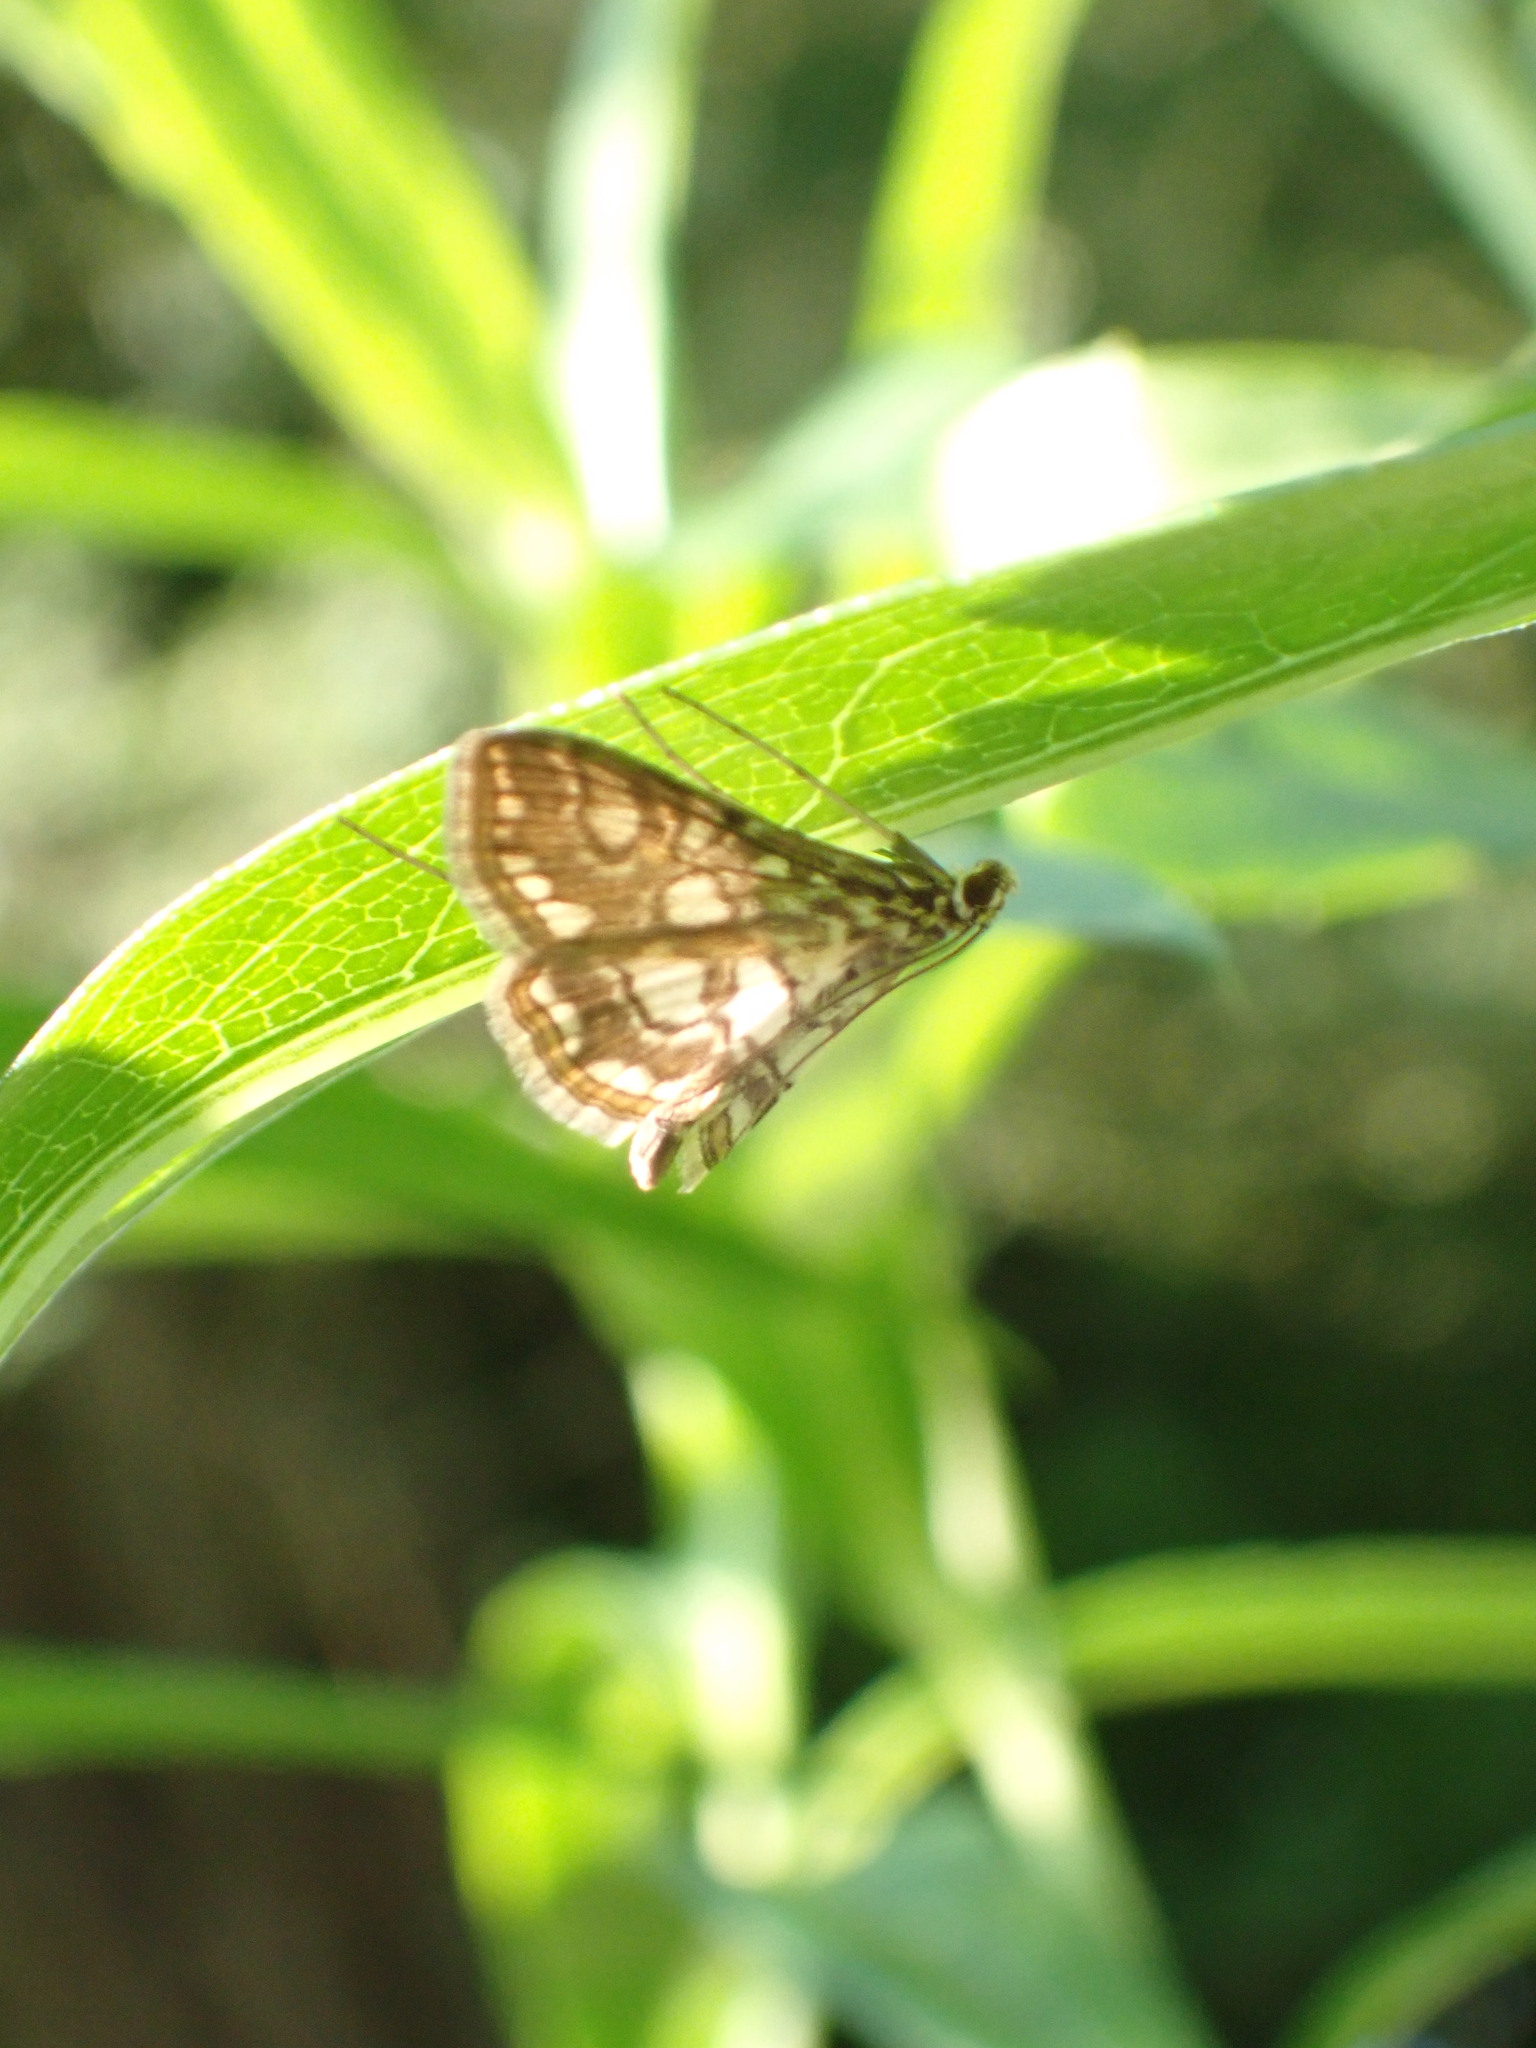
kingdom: Animalia
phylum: Arthropoda
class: Insecta
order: Lepidoptera
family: Crambidae
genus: Elophila
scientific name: Elophila nymphaeata
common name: Brown china-mark
